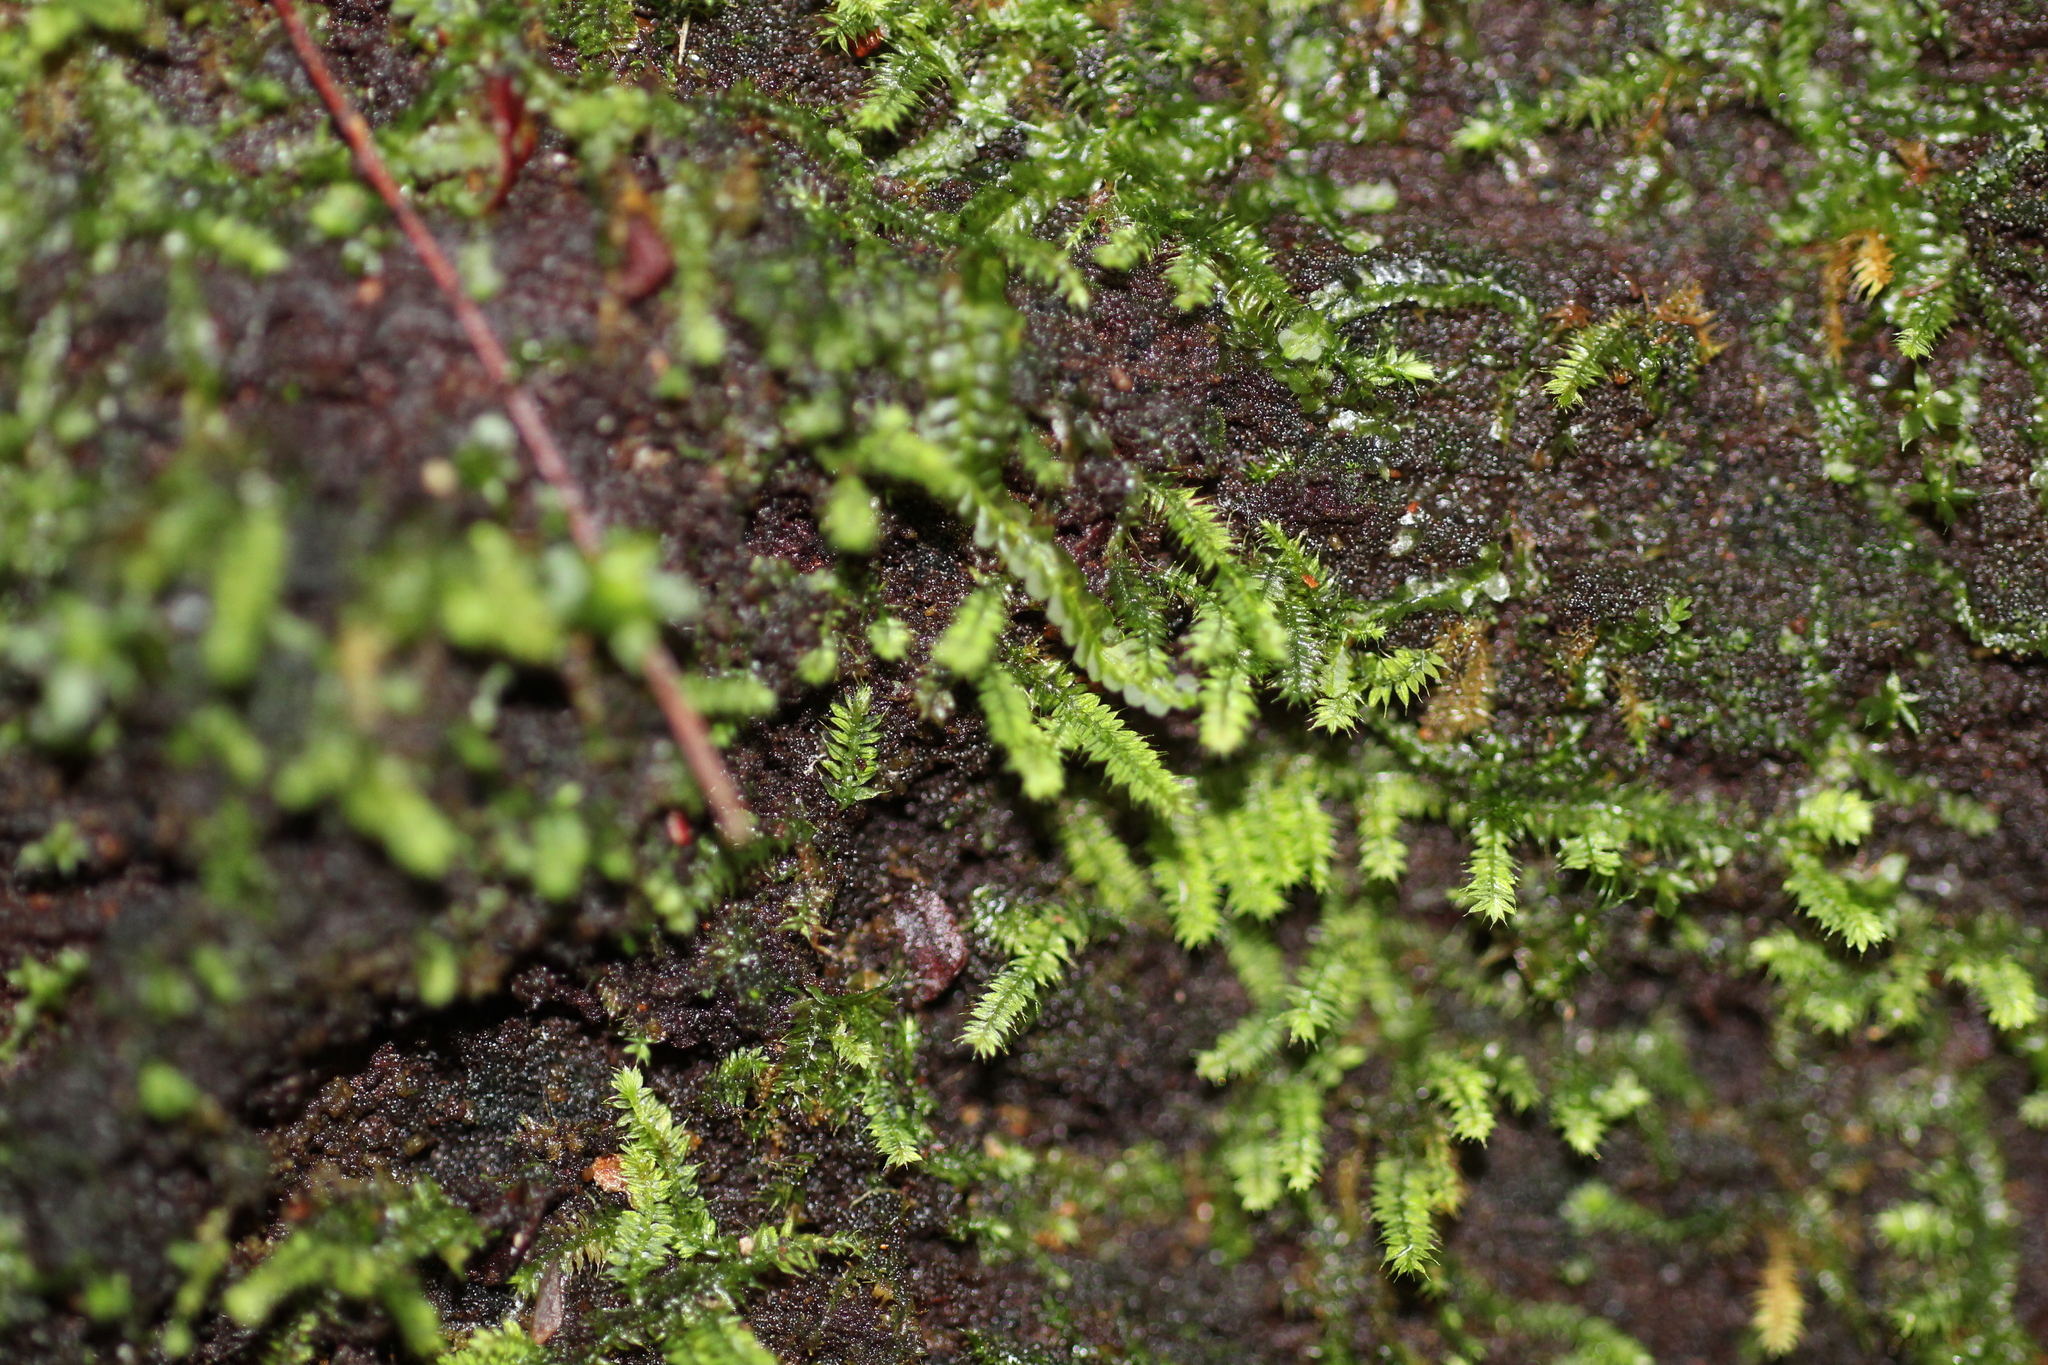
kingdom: Plantae
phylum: Bryophyta
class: Bryopsida
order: Hypnodendrales
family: Racopilaceae
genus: Racopilum
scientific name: Racopilum cuspidigerum
